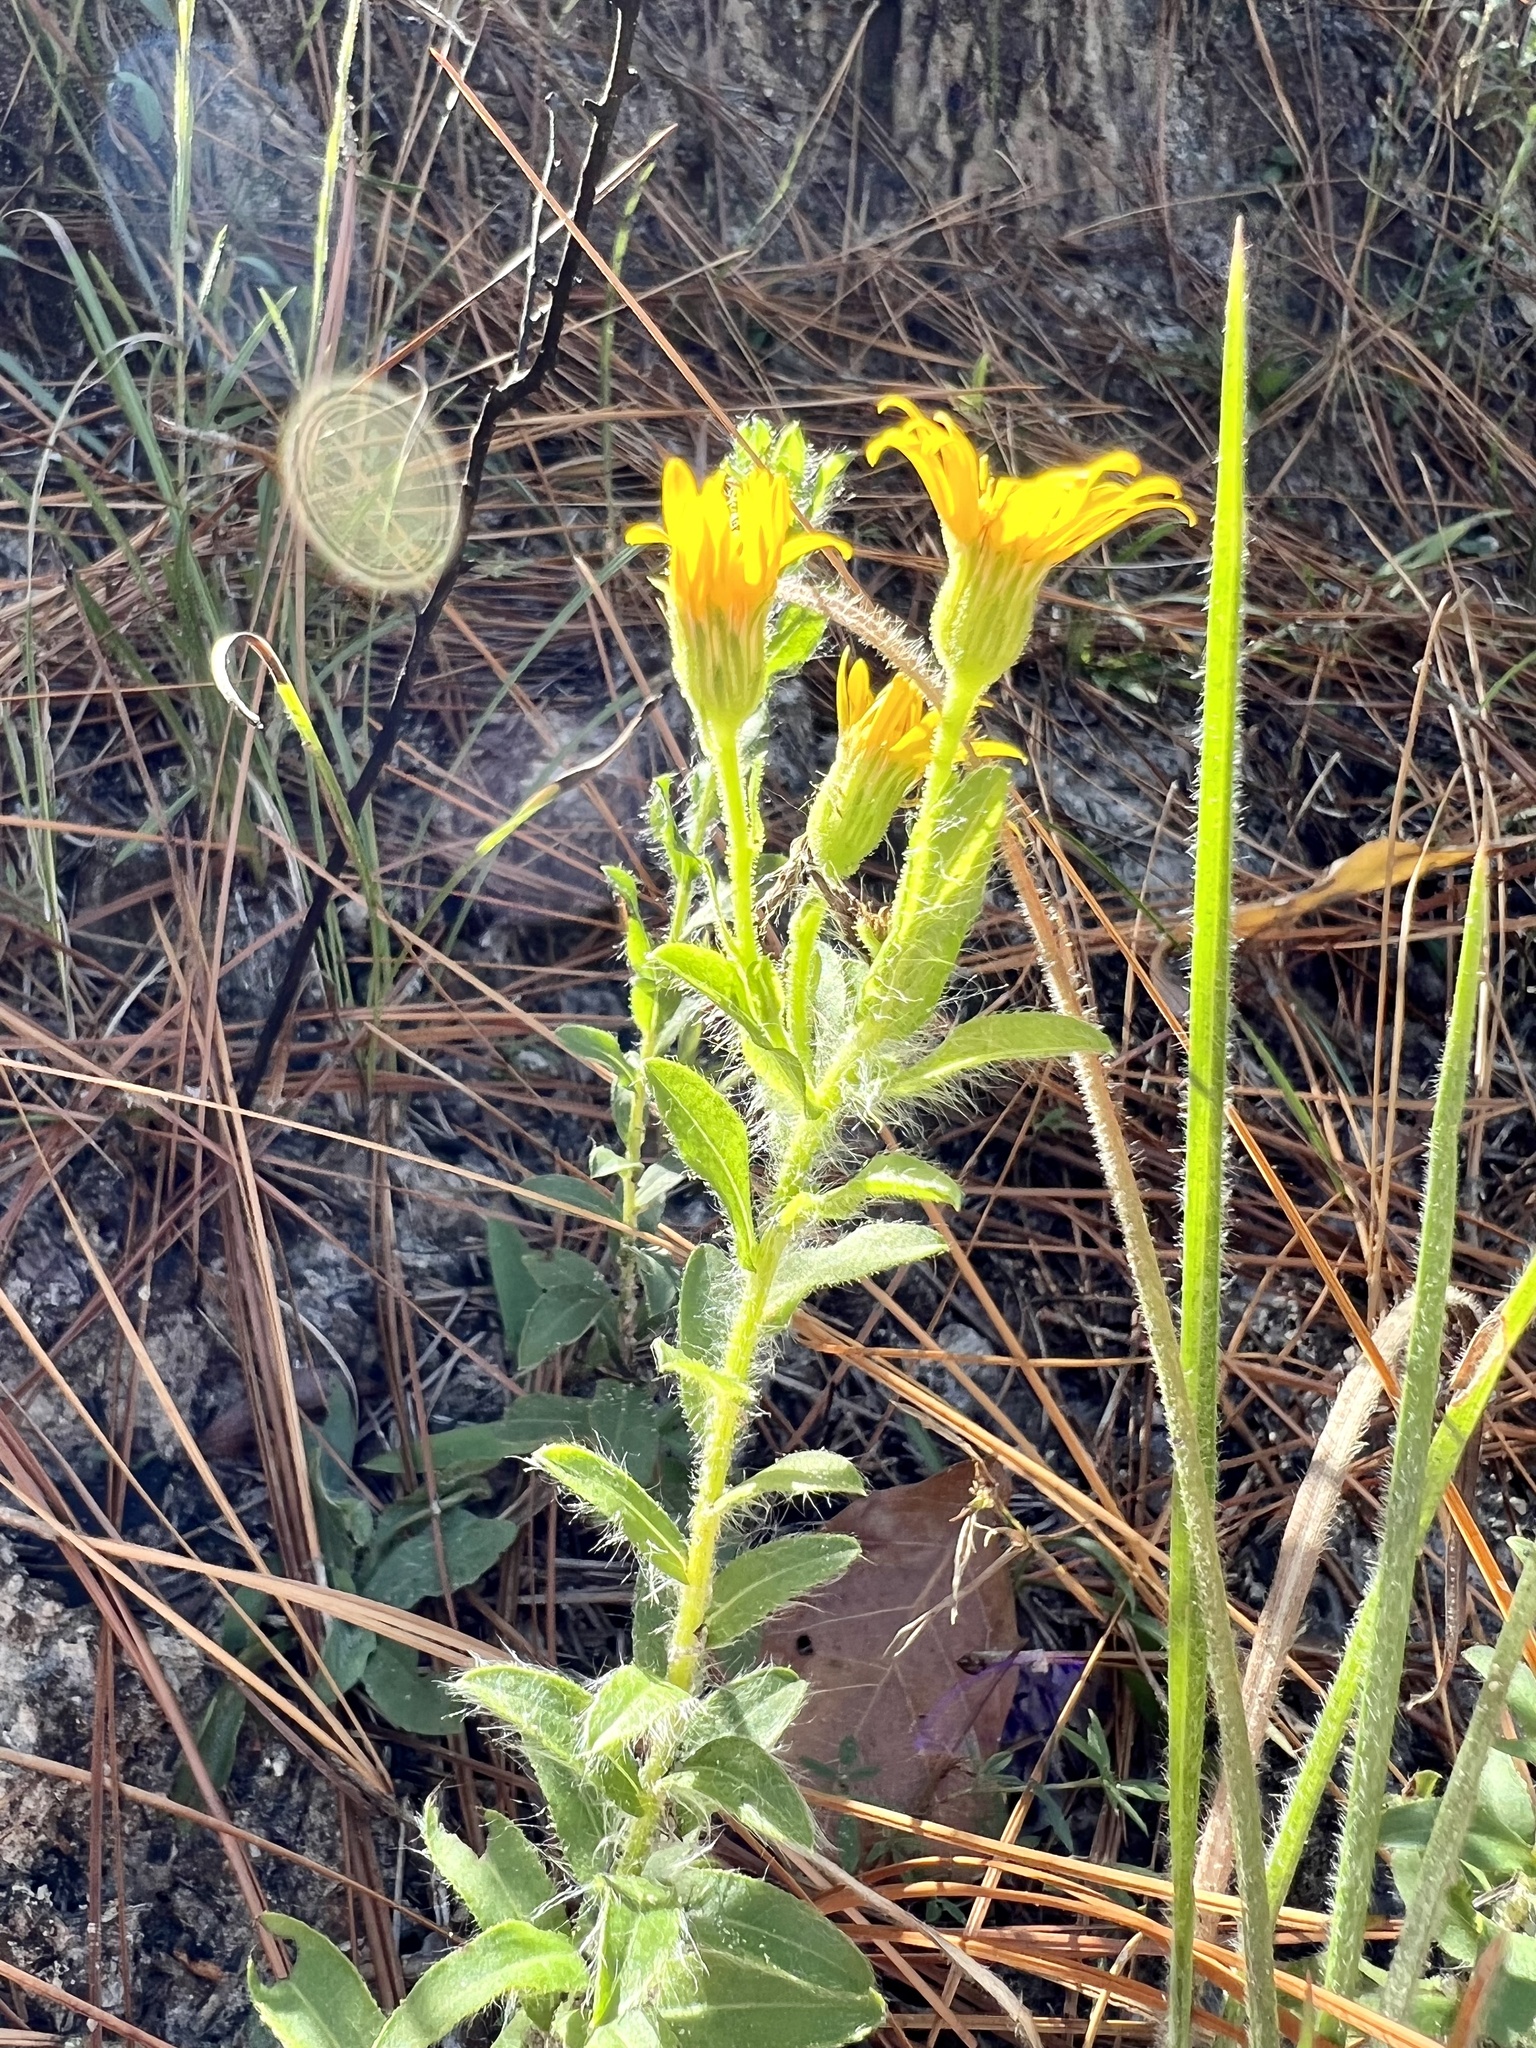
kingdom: Plantae
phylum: Tracheophyta
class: Magnoliopsida
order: Asterales
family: Asteraceae
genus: Chrysopsis
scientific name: Chrysopsis mariana
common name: Maryland golden-aster
